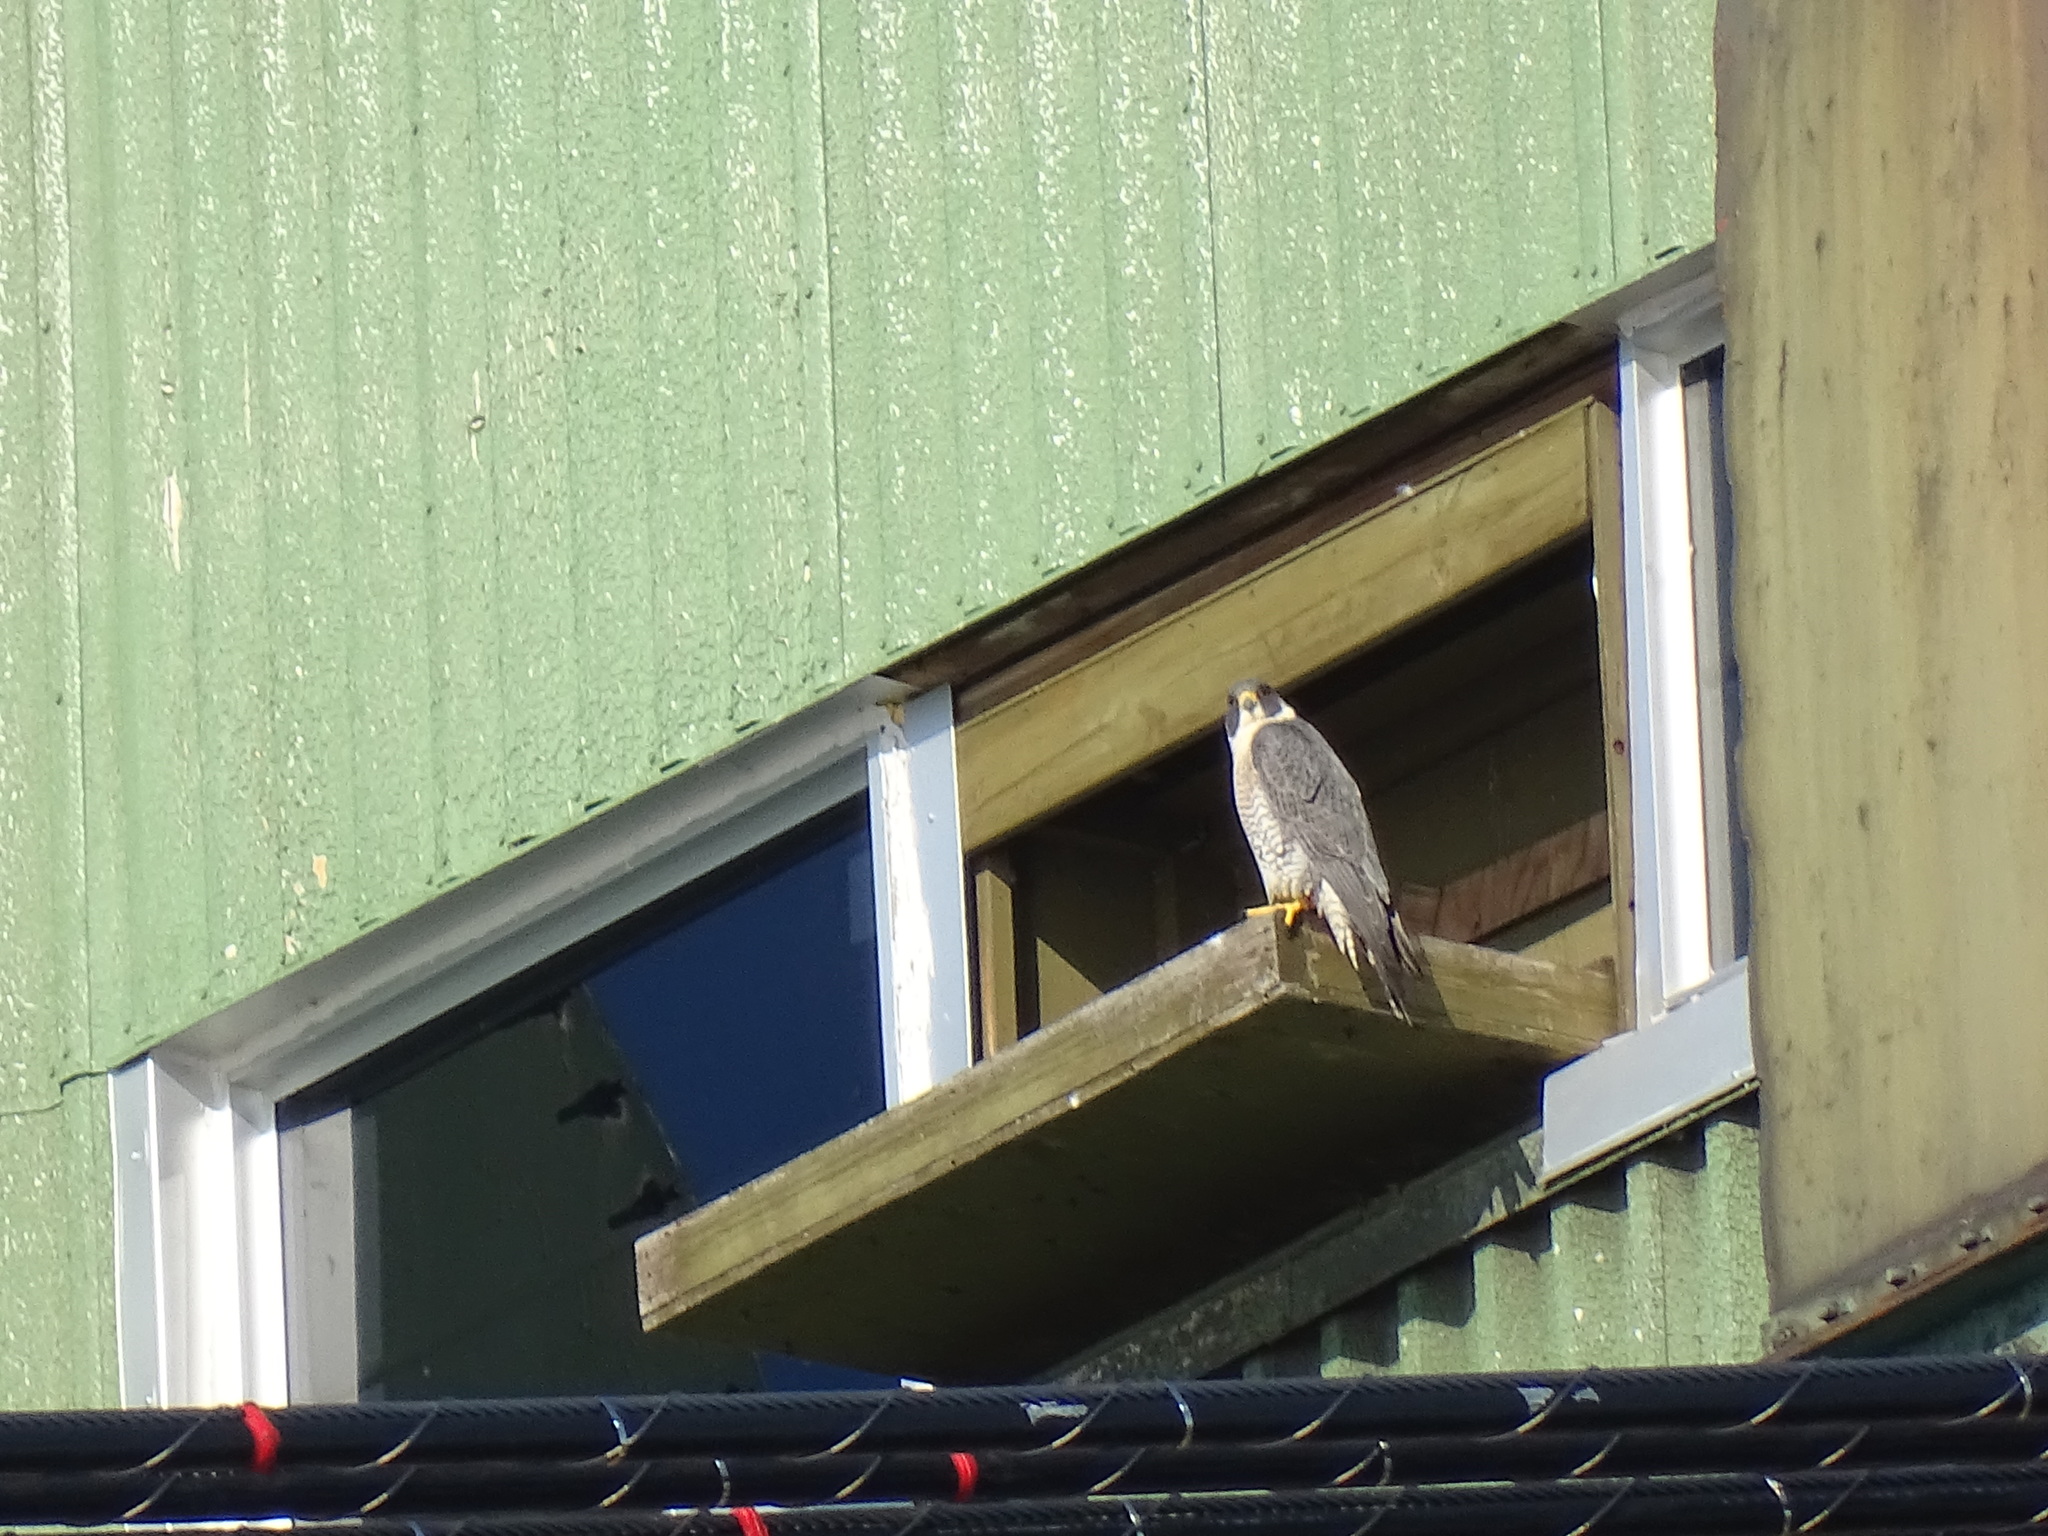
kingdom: Animalia
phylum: Chordata
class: Aves
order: Falconiformes
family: Falconidae
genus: Falco
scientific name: Falco peregrinus
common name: Peregrine falcon
